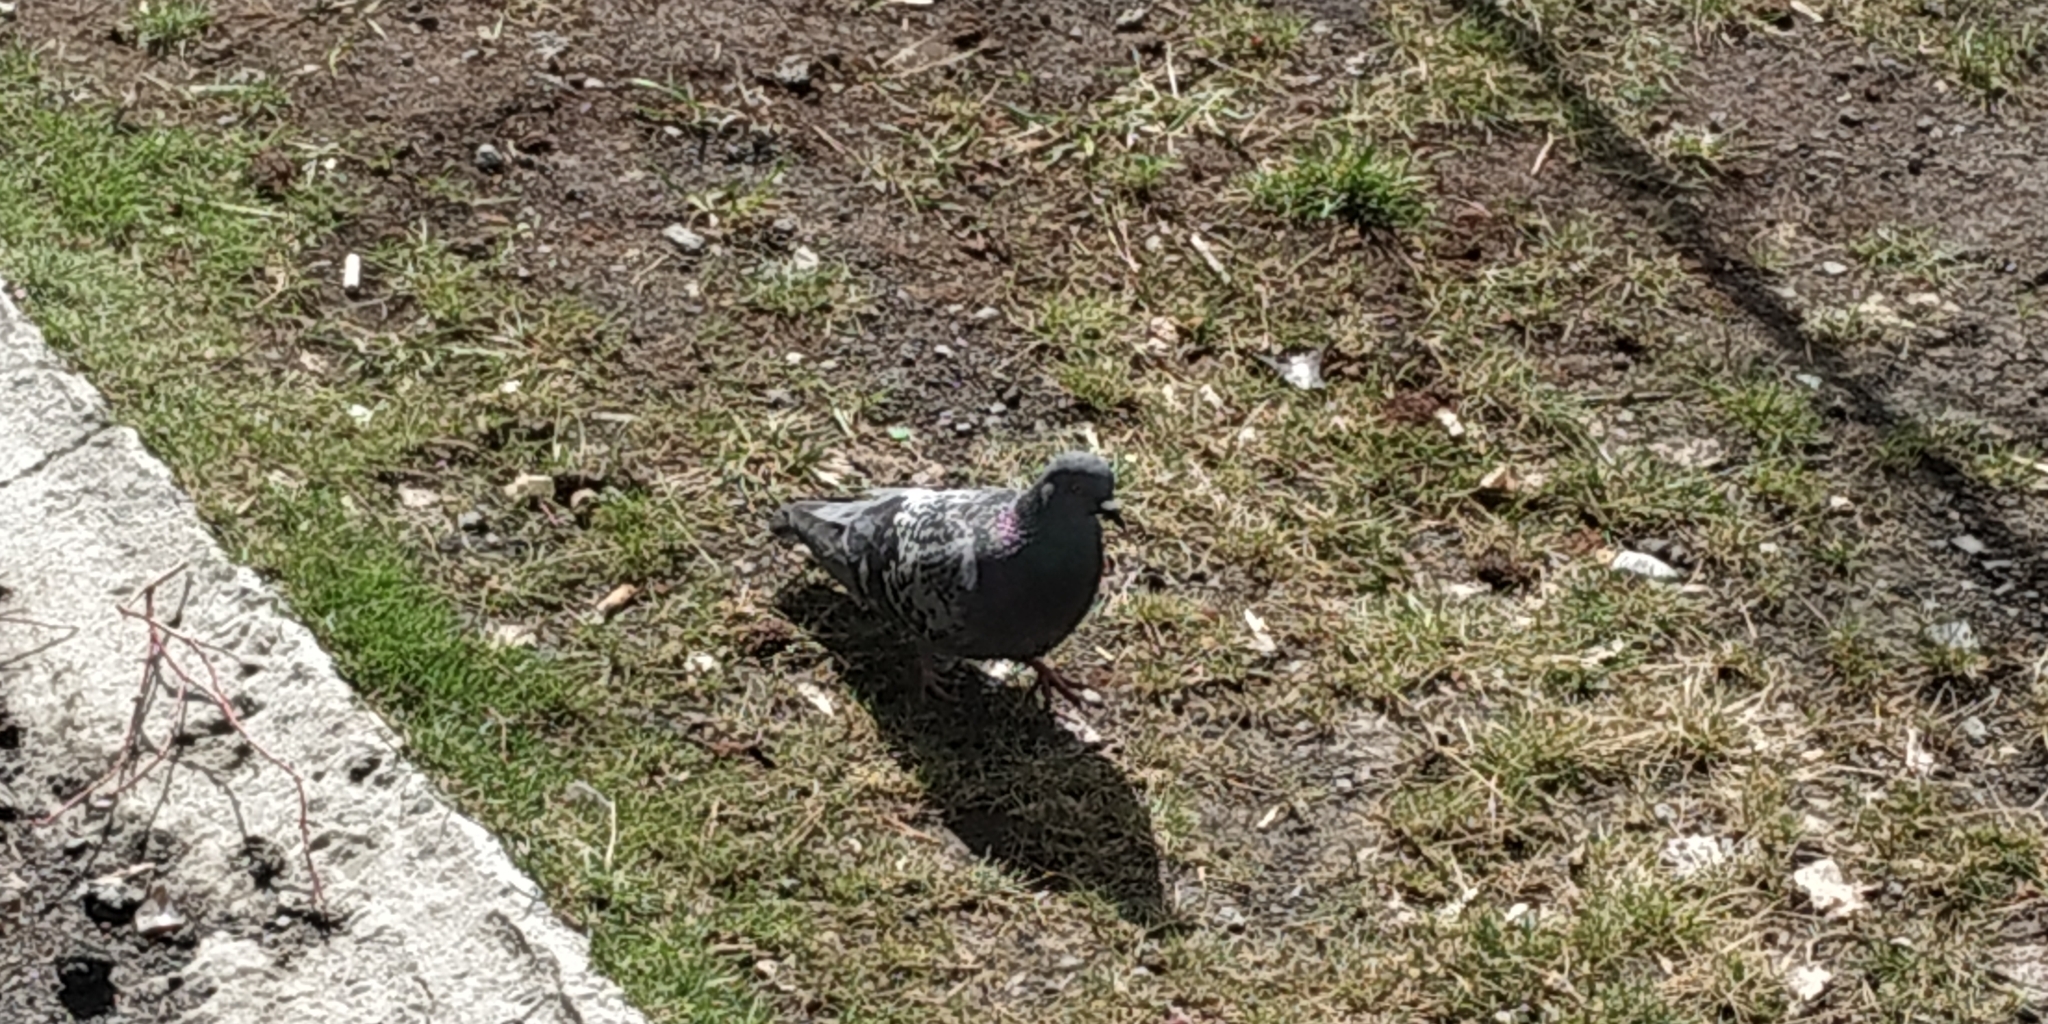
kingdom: Animalia
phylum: Chordata
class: Aves
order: Columbiformes
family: Columbidae
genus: Columba
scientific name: Columba livia
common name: Rock pigeon
